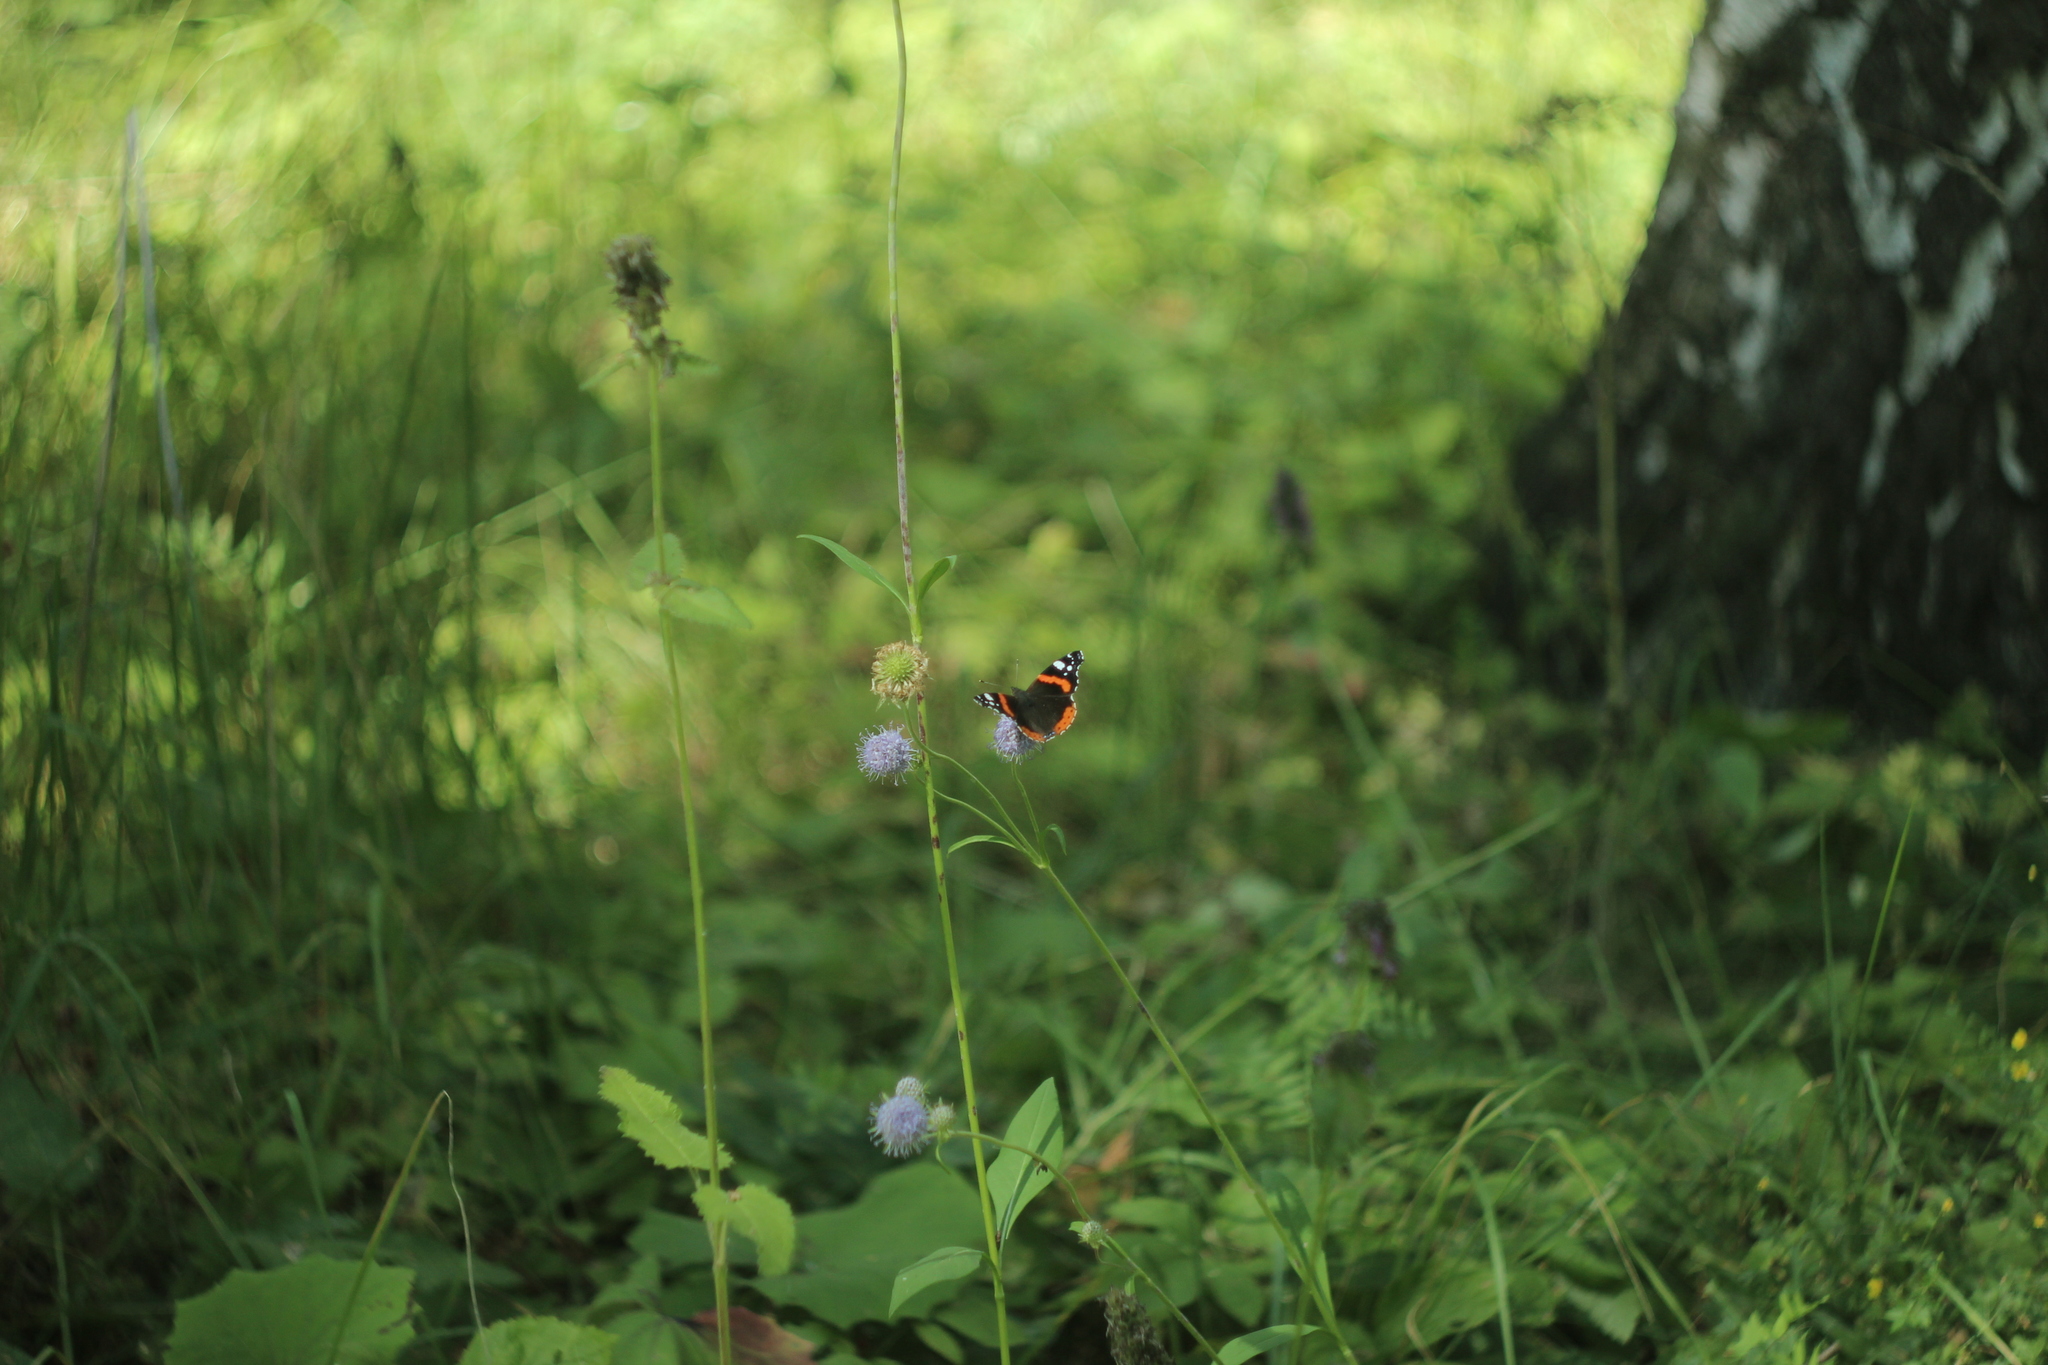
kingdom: Animalia
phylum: Arthropoda
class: Insecta
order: Lepidoptera
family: Nymphalidae
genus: Vanessa
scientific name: Vanessa atalanta
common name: Red admiral
